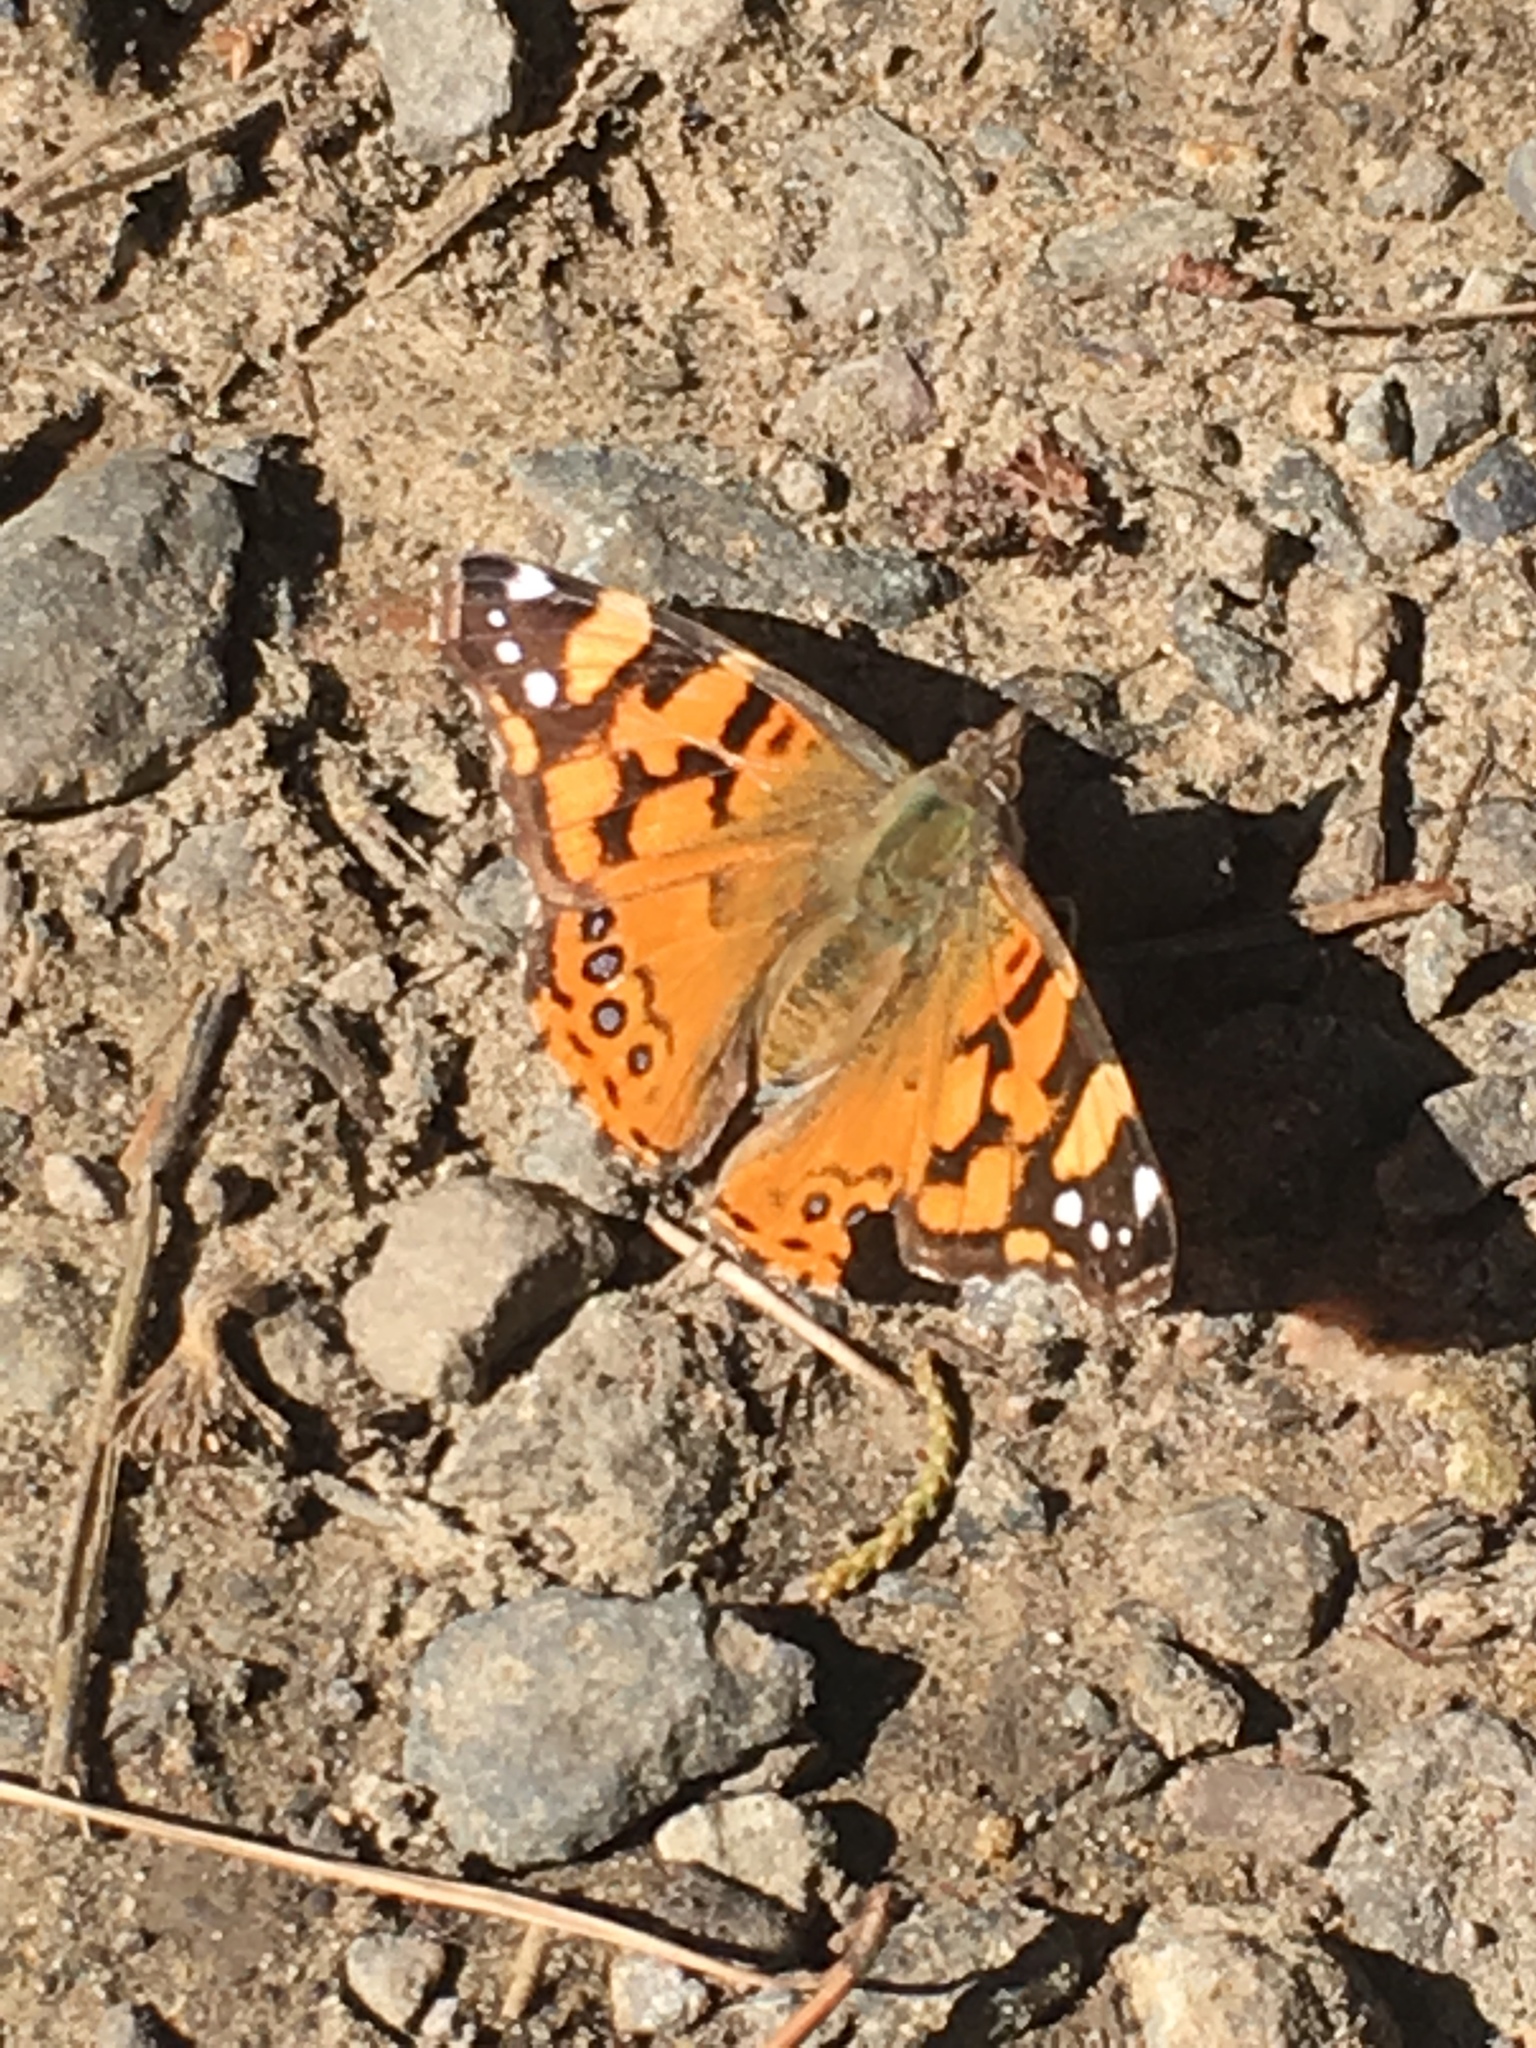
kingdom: Animalia
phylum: Arthropoda
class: Insecta
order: Lepidoptera
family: Nymphalidae
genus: Vanessa
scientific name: Vanessa annabella
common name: West coast lady
